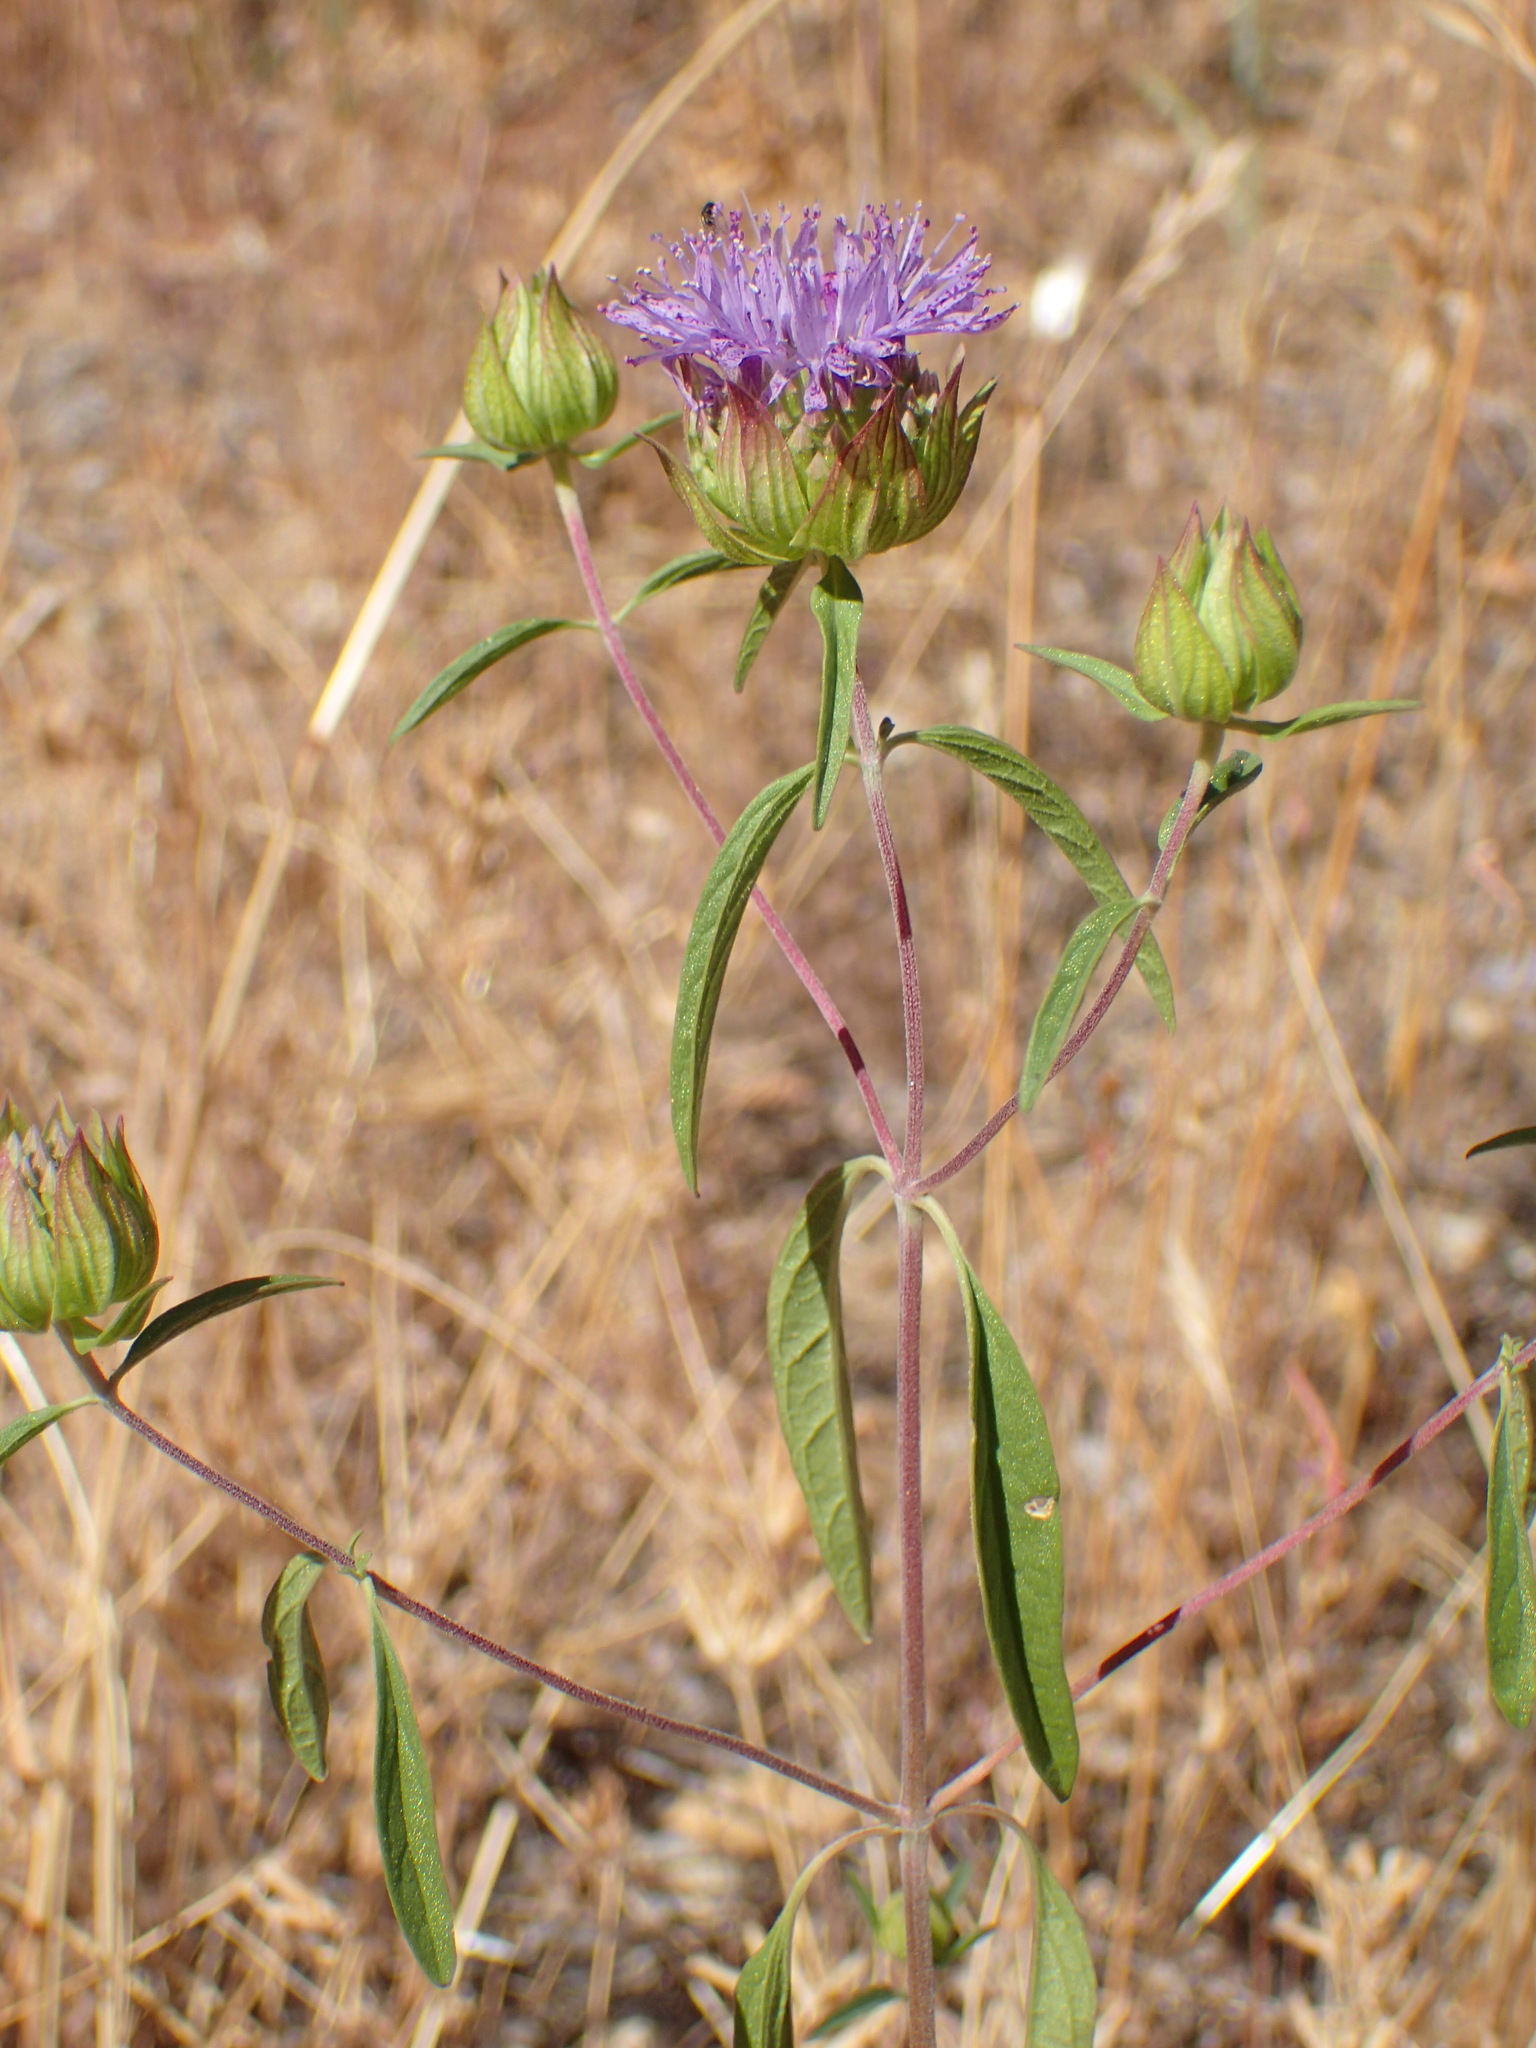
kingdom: Plantae
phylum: Tracheophyta
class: Magnoliopsida
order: Lamiales
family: Lamiaceae
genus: Monardella
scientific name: Monardella breweri
